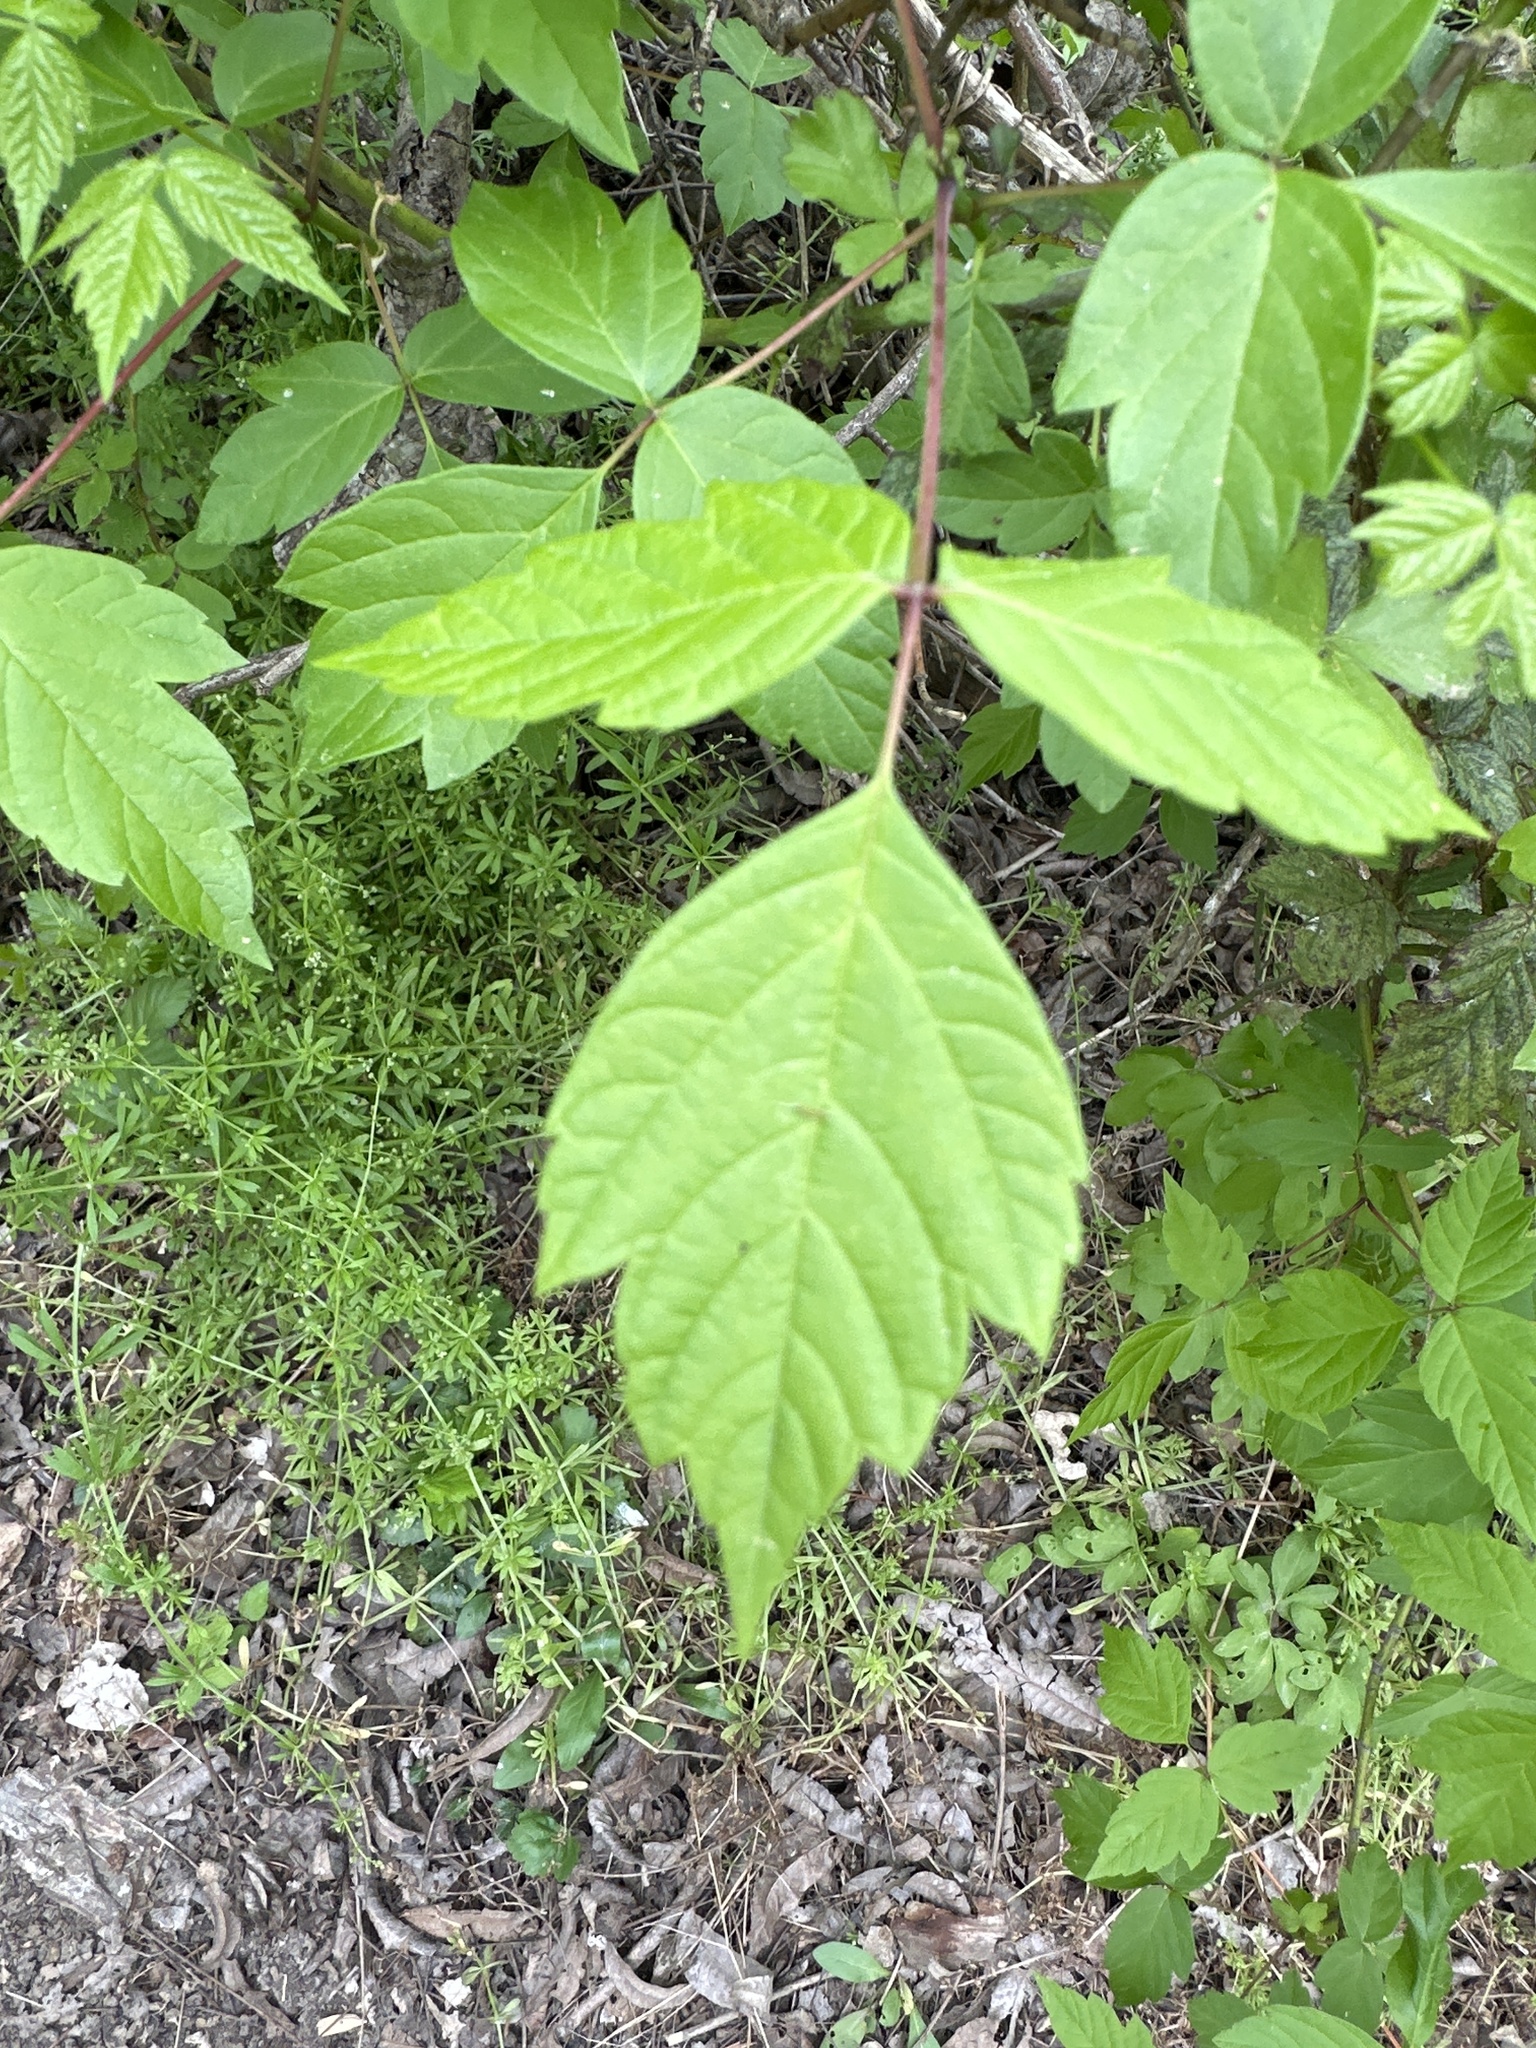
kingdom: Plantae
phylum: Tracheophyta
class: Magnoliopsida
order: Sapindales
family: Sapindaceae
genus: Acer
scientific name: Acer negundo
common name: Ashleaf maple
